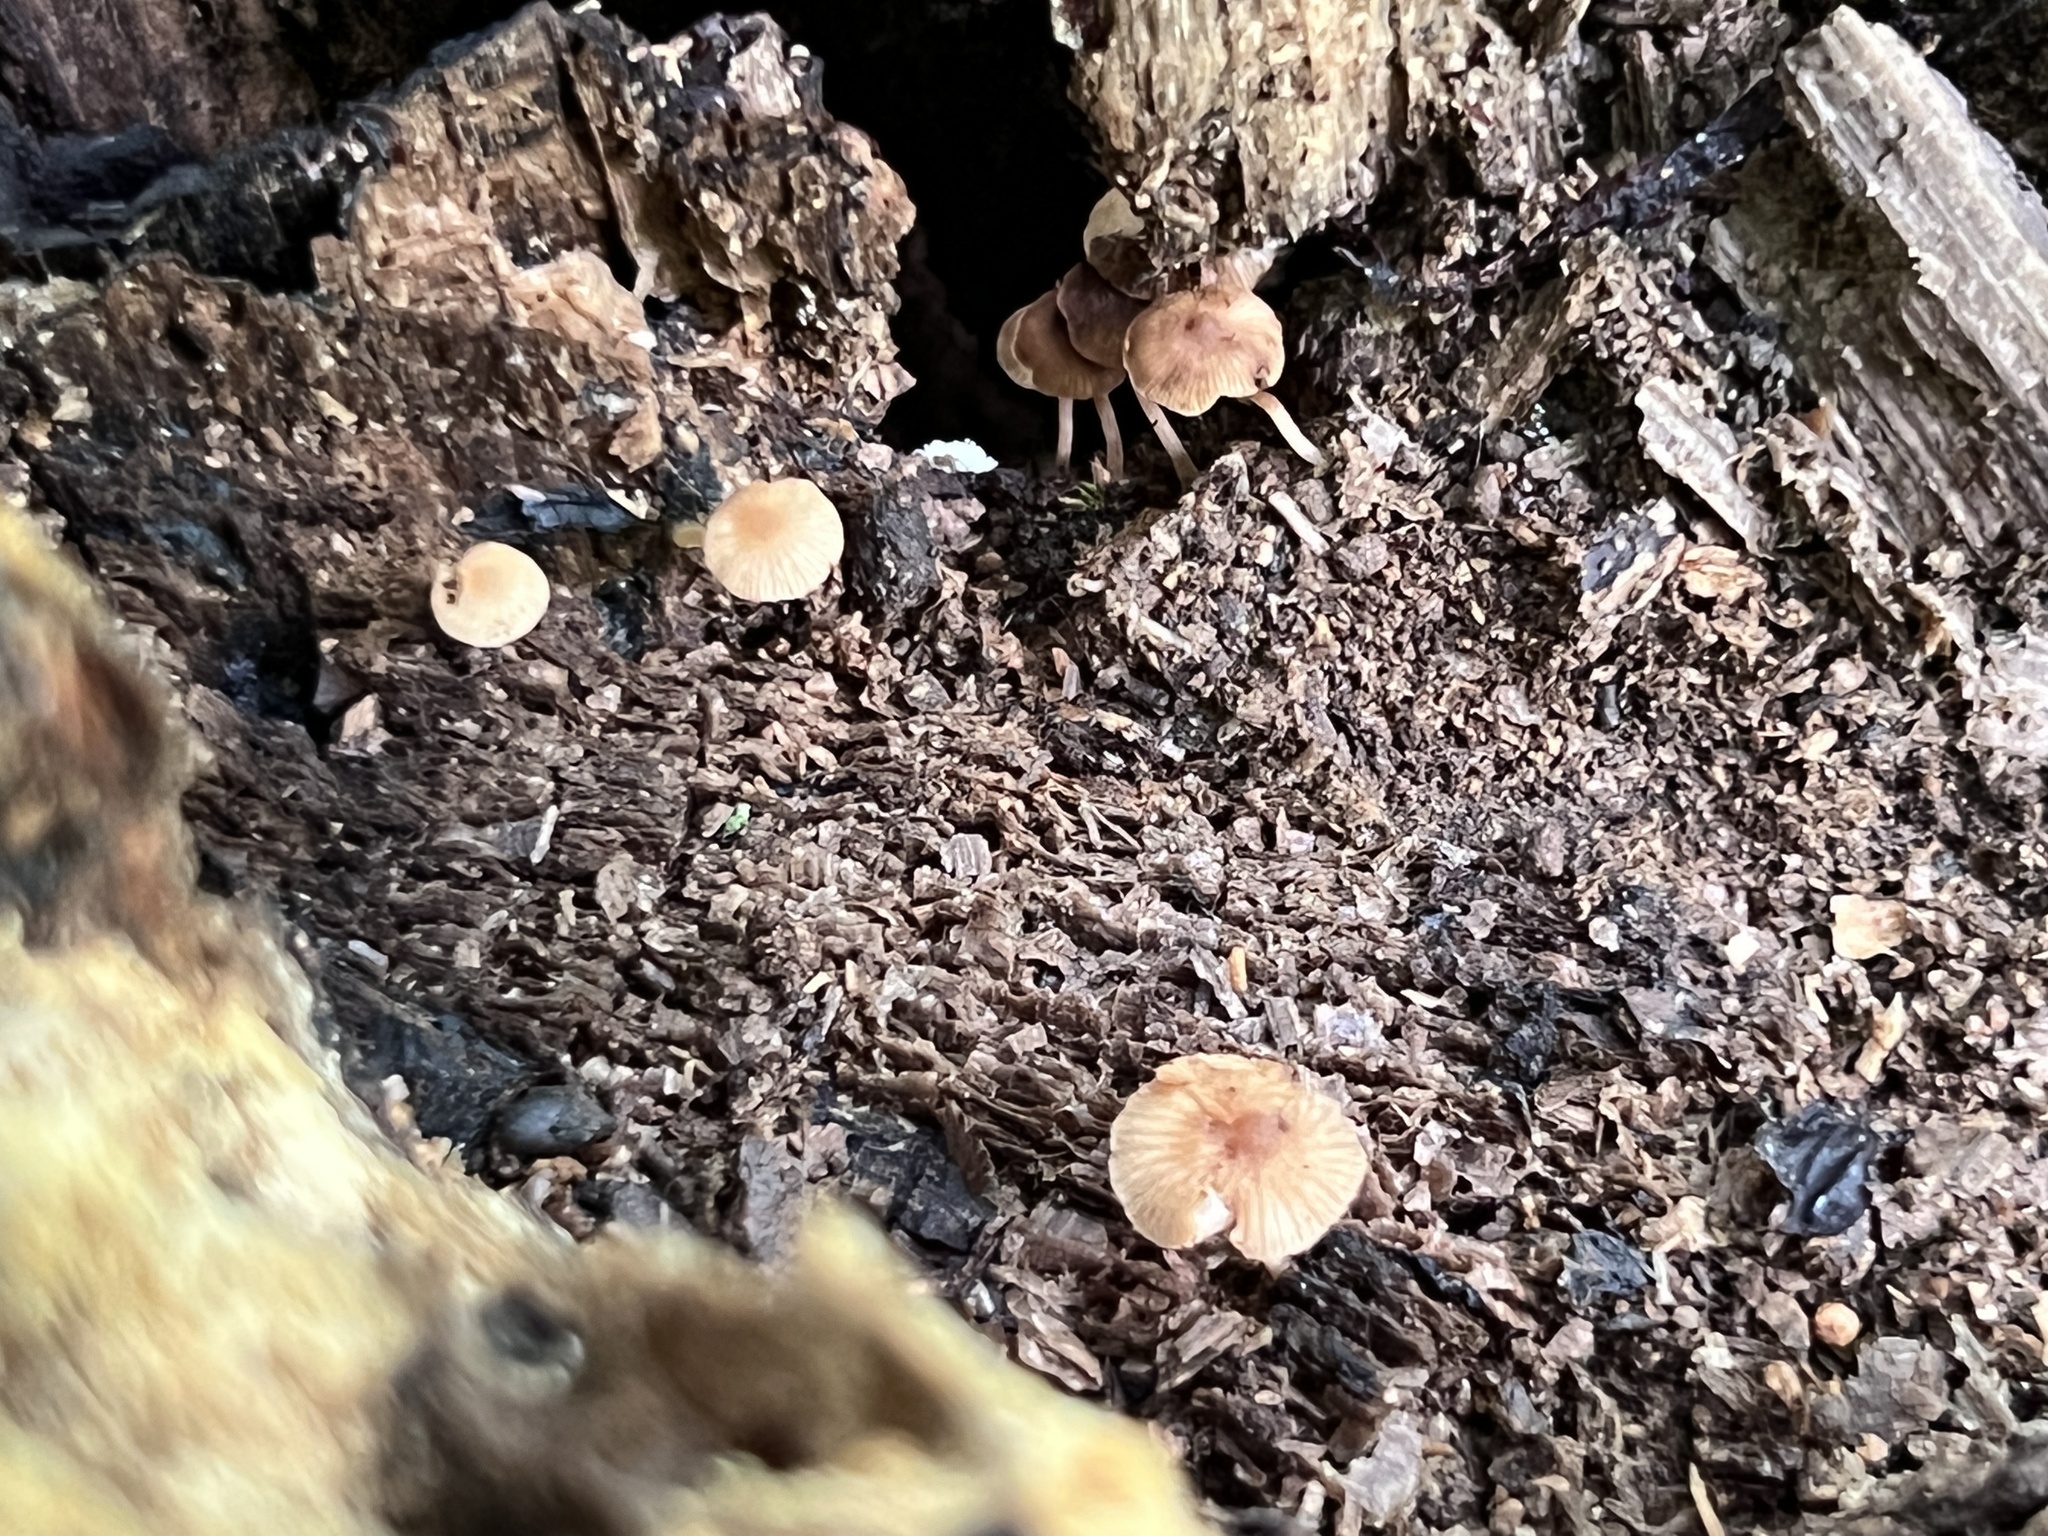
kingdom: Fungi
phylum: Basidiomycota
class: Agaricomycetes
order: Agaricales
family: Callistosporiaceae
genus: Callistosporium
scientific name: Callistosporium pseudofelleum
